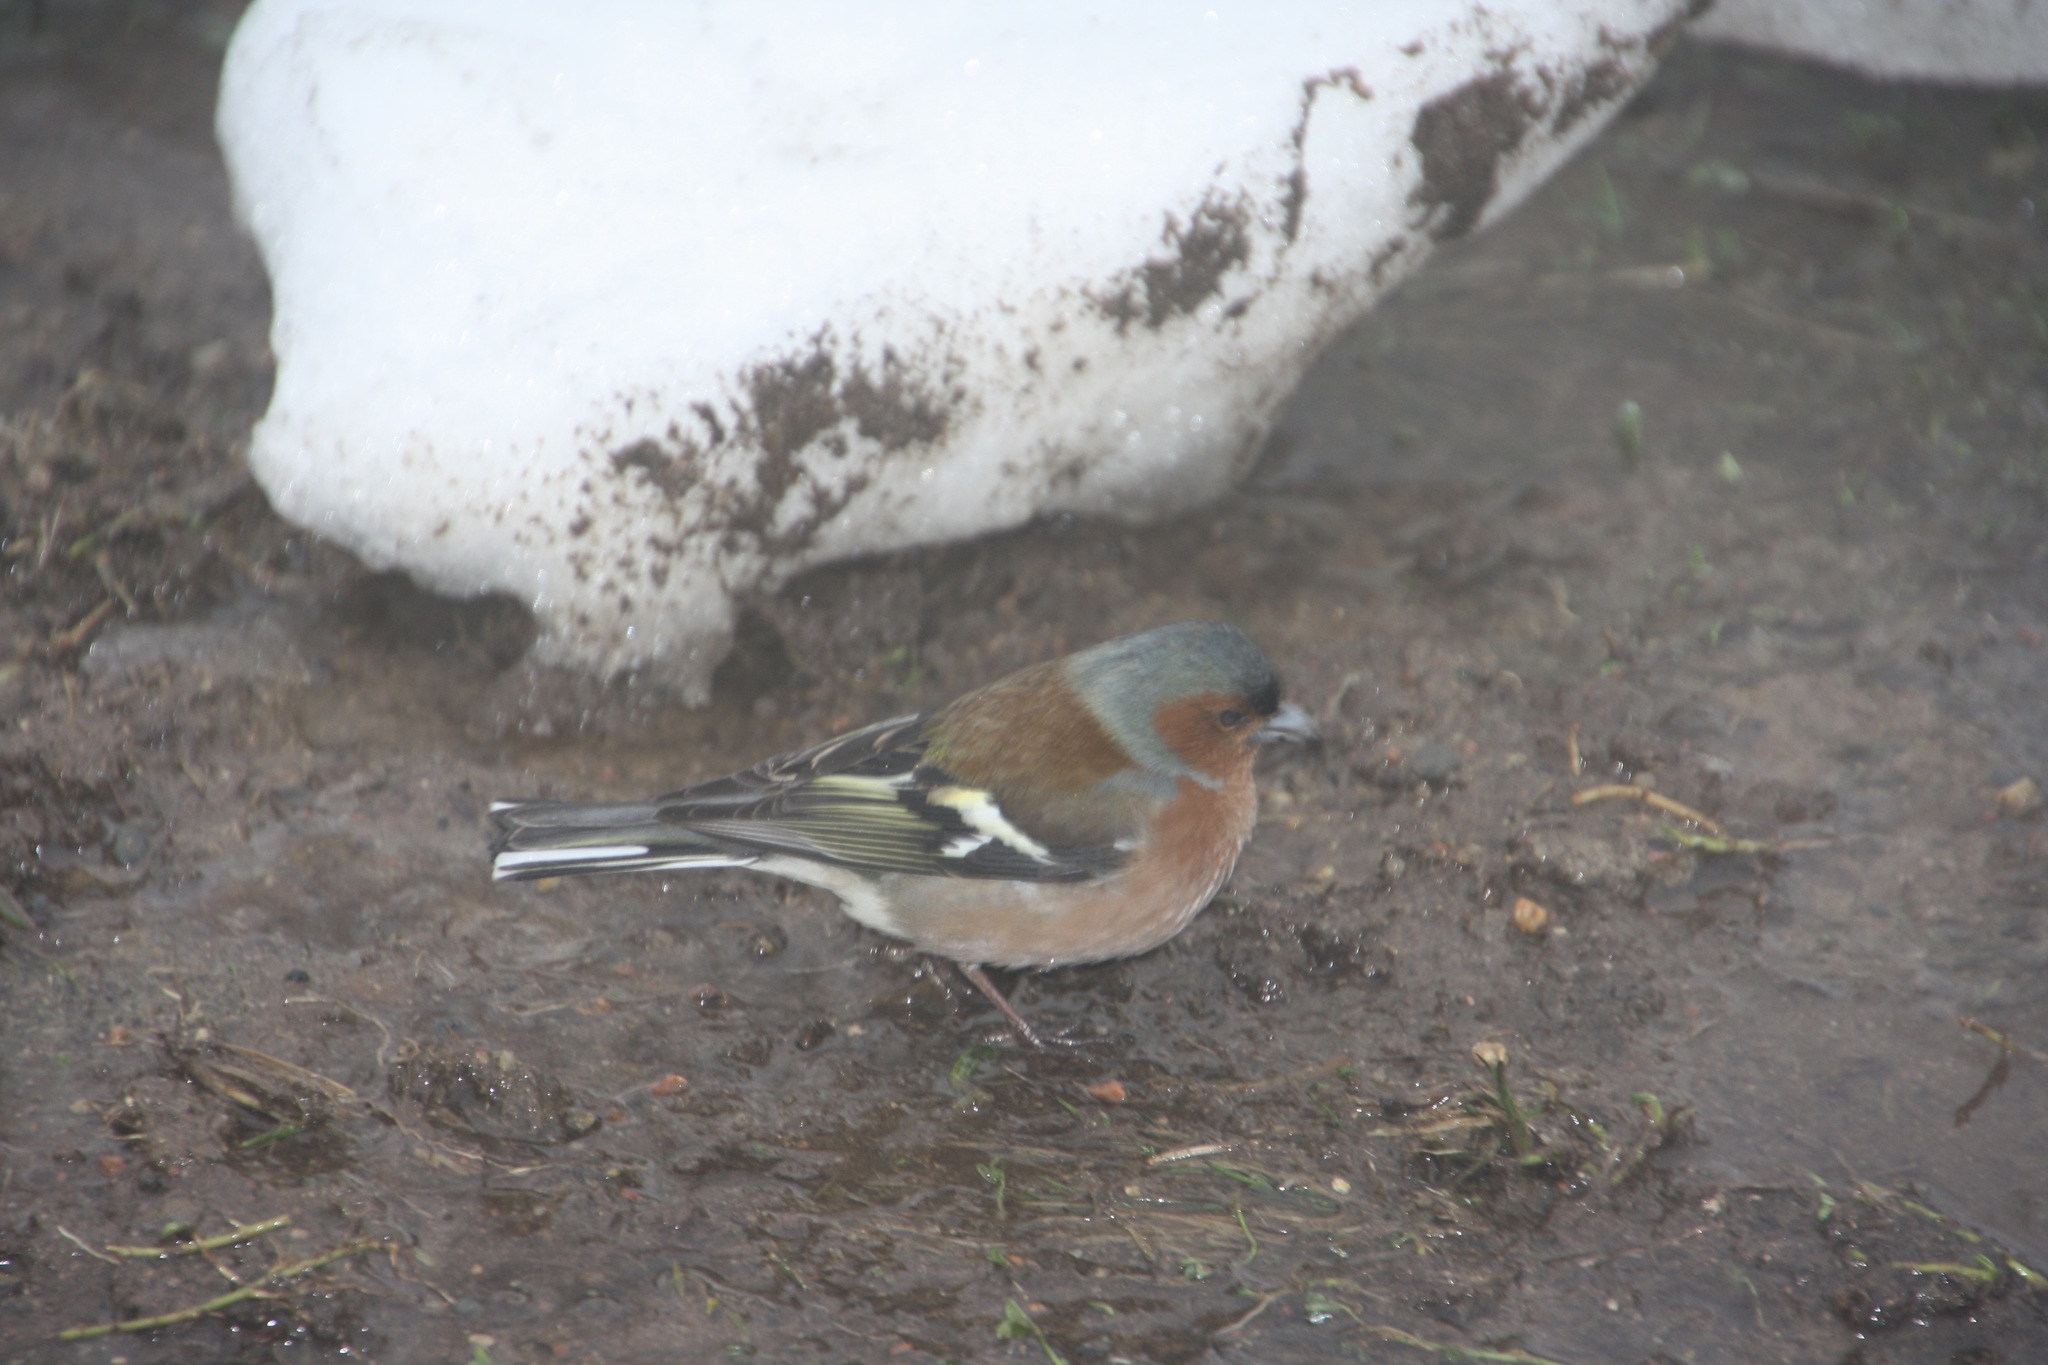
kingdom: Animalia
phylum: Chordata
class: Aves
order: Passeriformes
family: Fringillidae
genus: Fringilla
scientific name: Fringilla coelebs
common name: Common chaffinch
